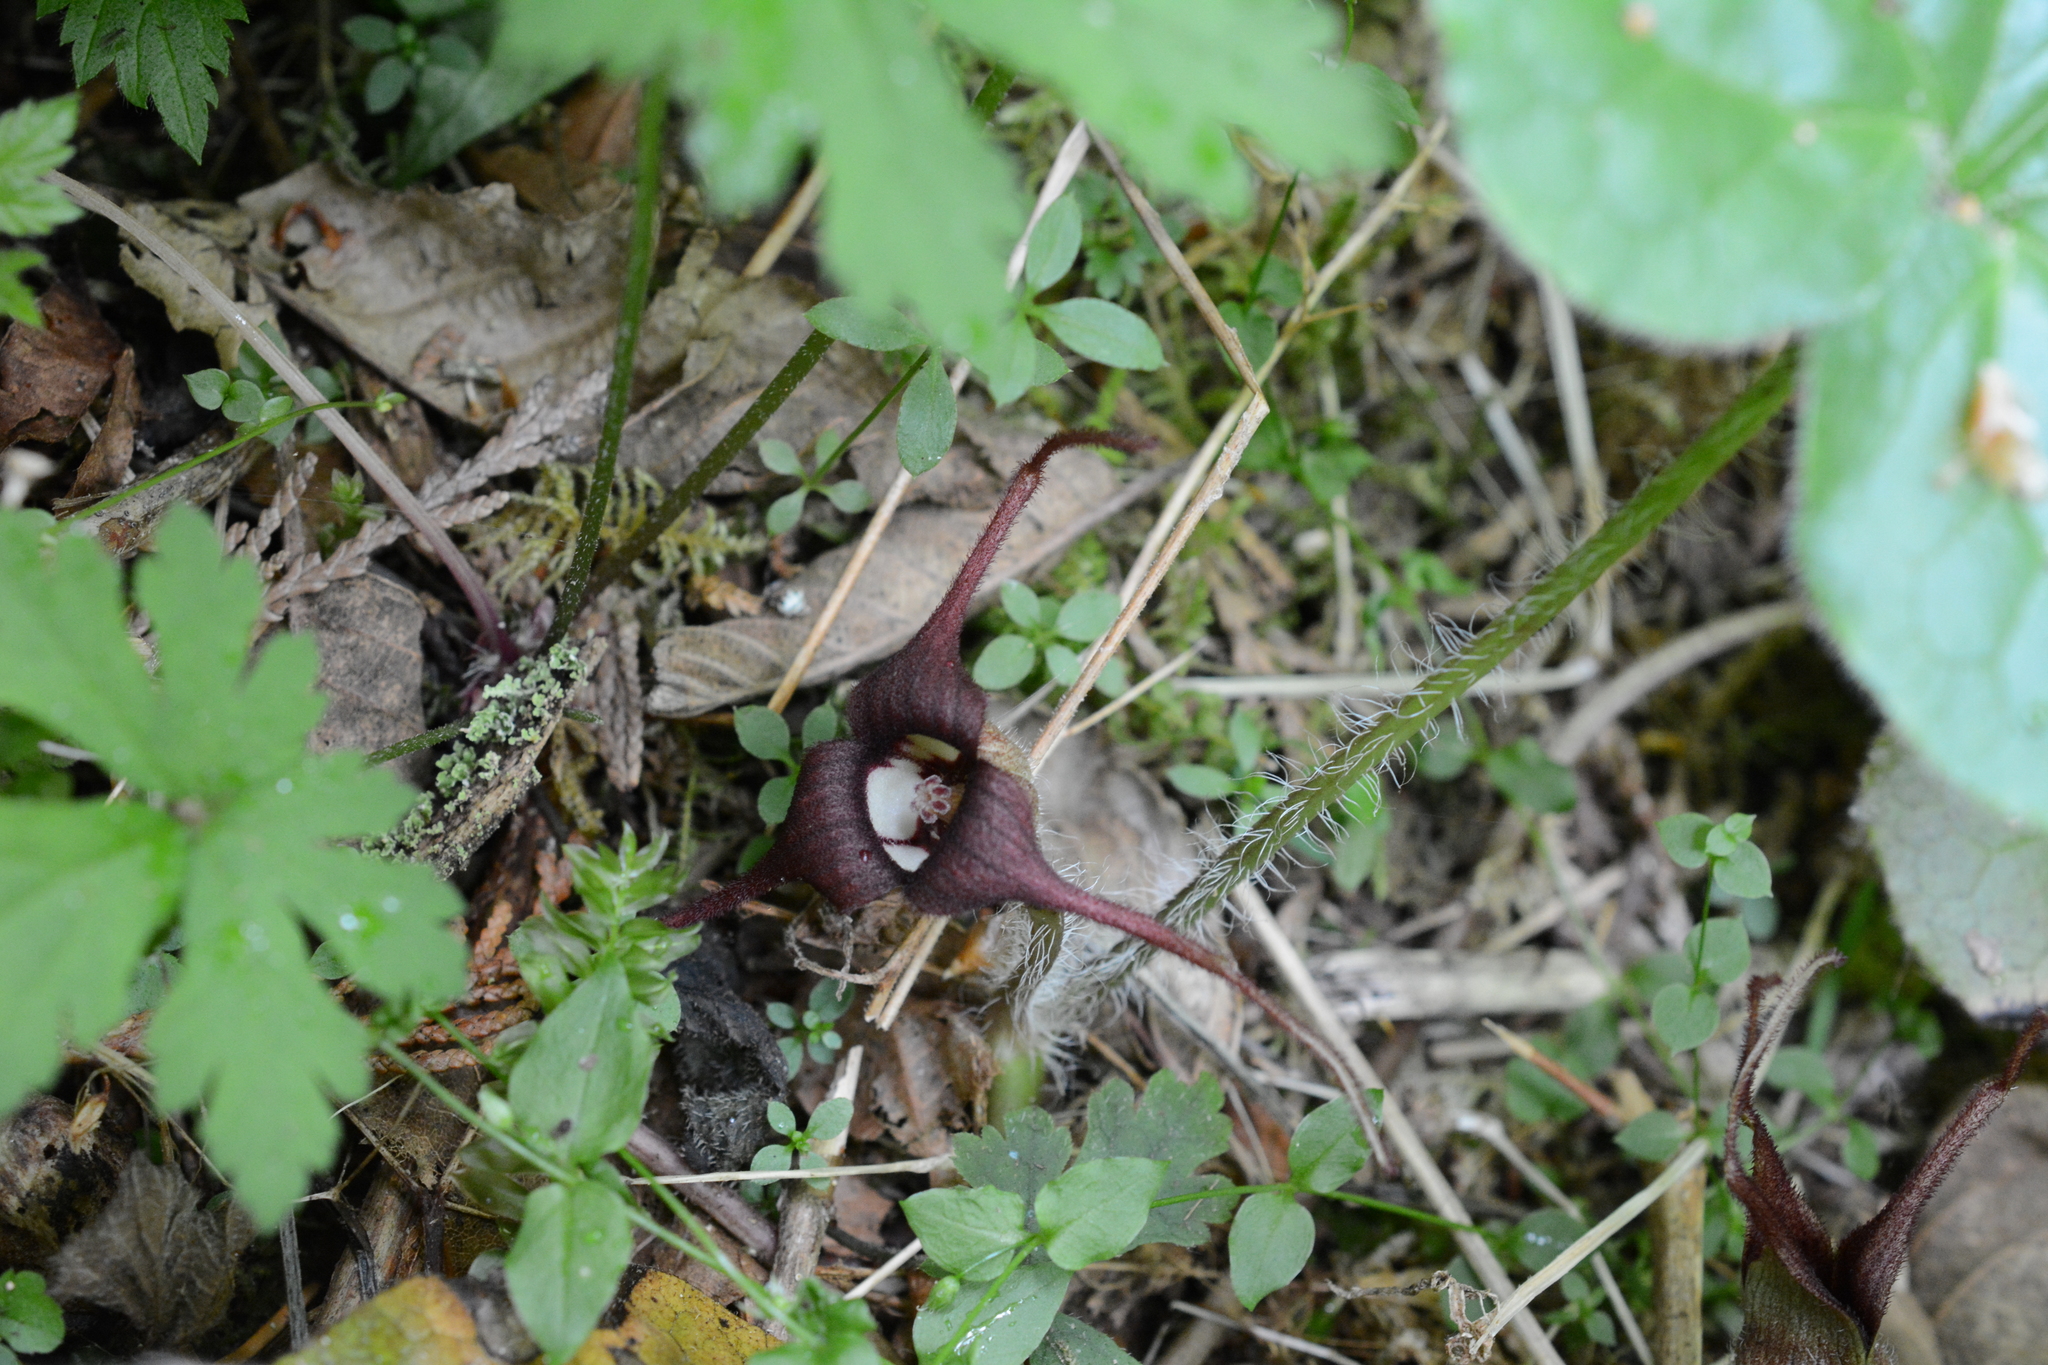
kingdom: Plantae
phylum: Tracheophyta
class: Magnoliopsida
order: Piperales
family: Aristolochiaceae
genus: Asarum
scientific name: Asarum caudatum
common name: Wild ginger
